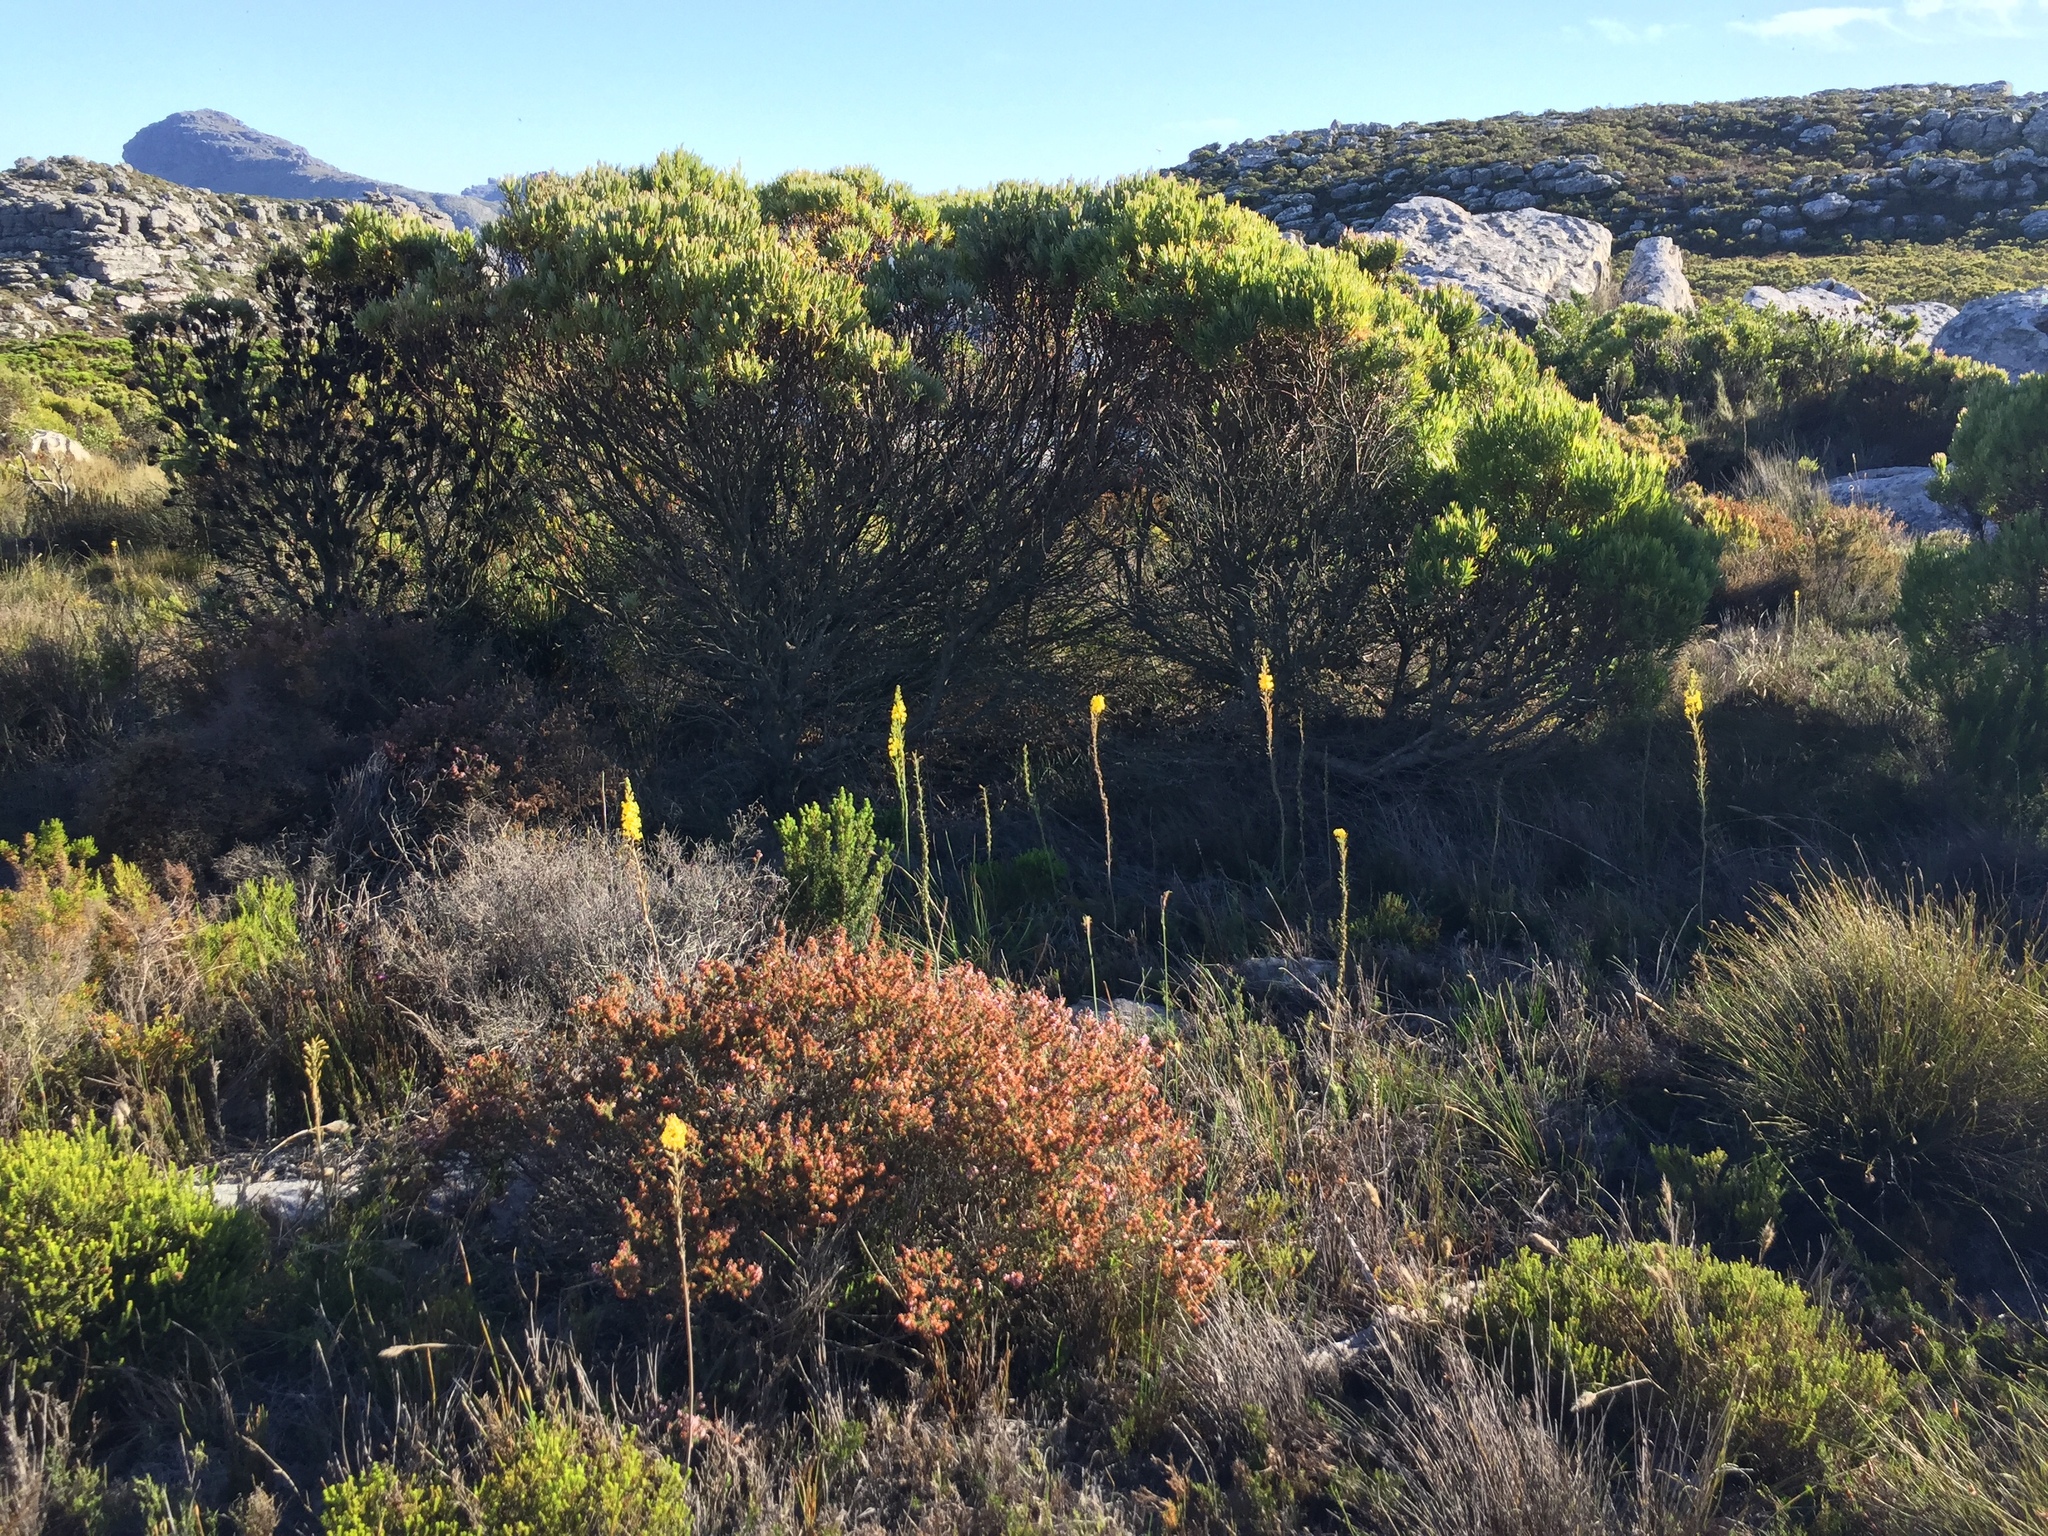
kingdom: Plantae
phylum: Tracheophyta
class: Liliopsida
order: Asparagales
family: Asphodelaceae
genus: Bulbine
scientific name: Bulbine favosa
